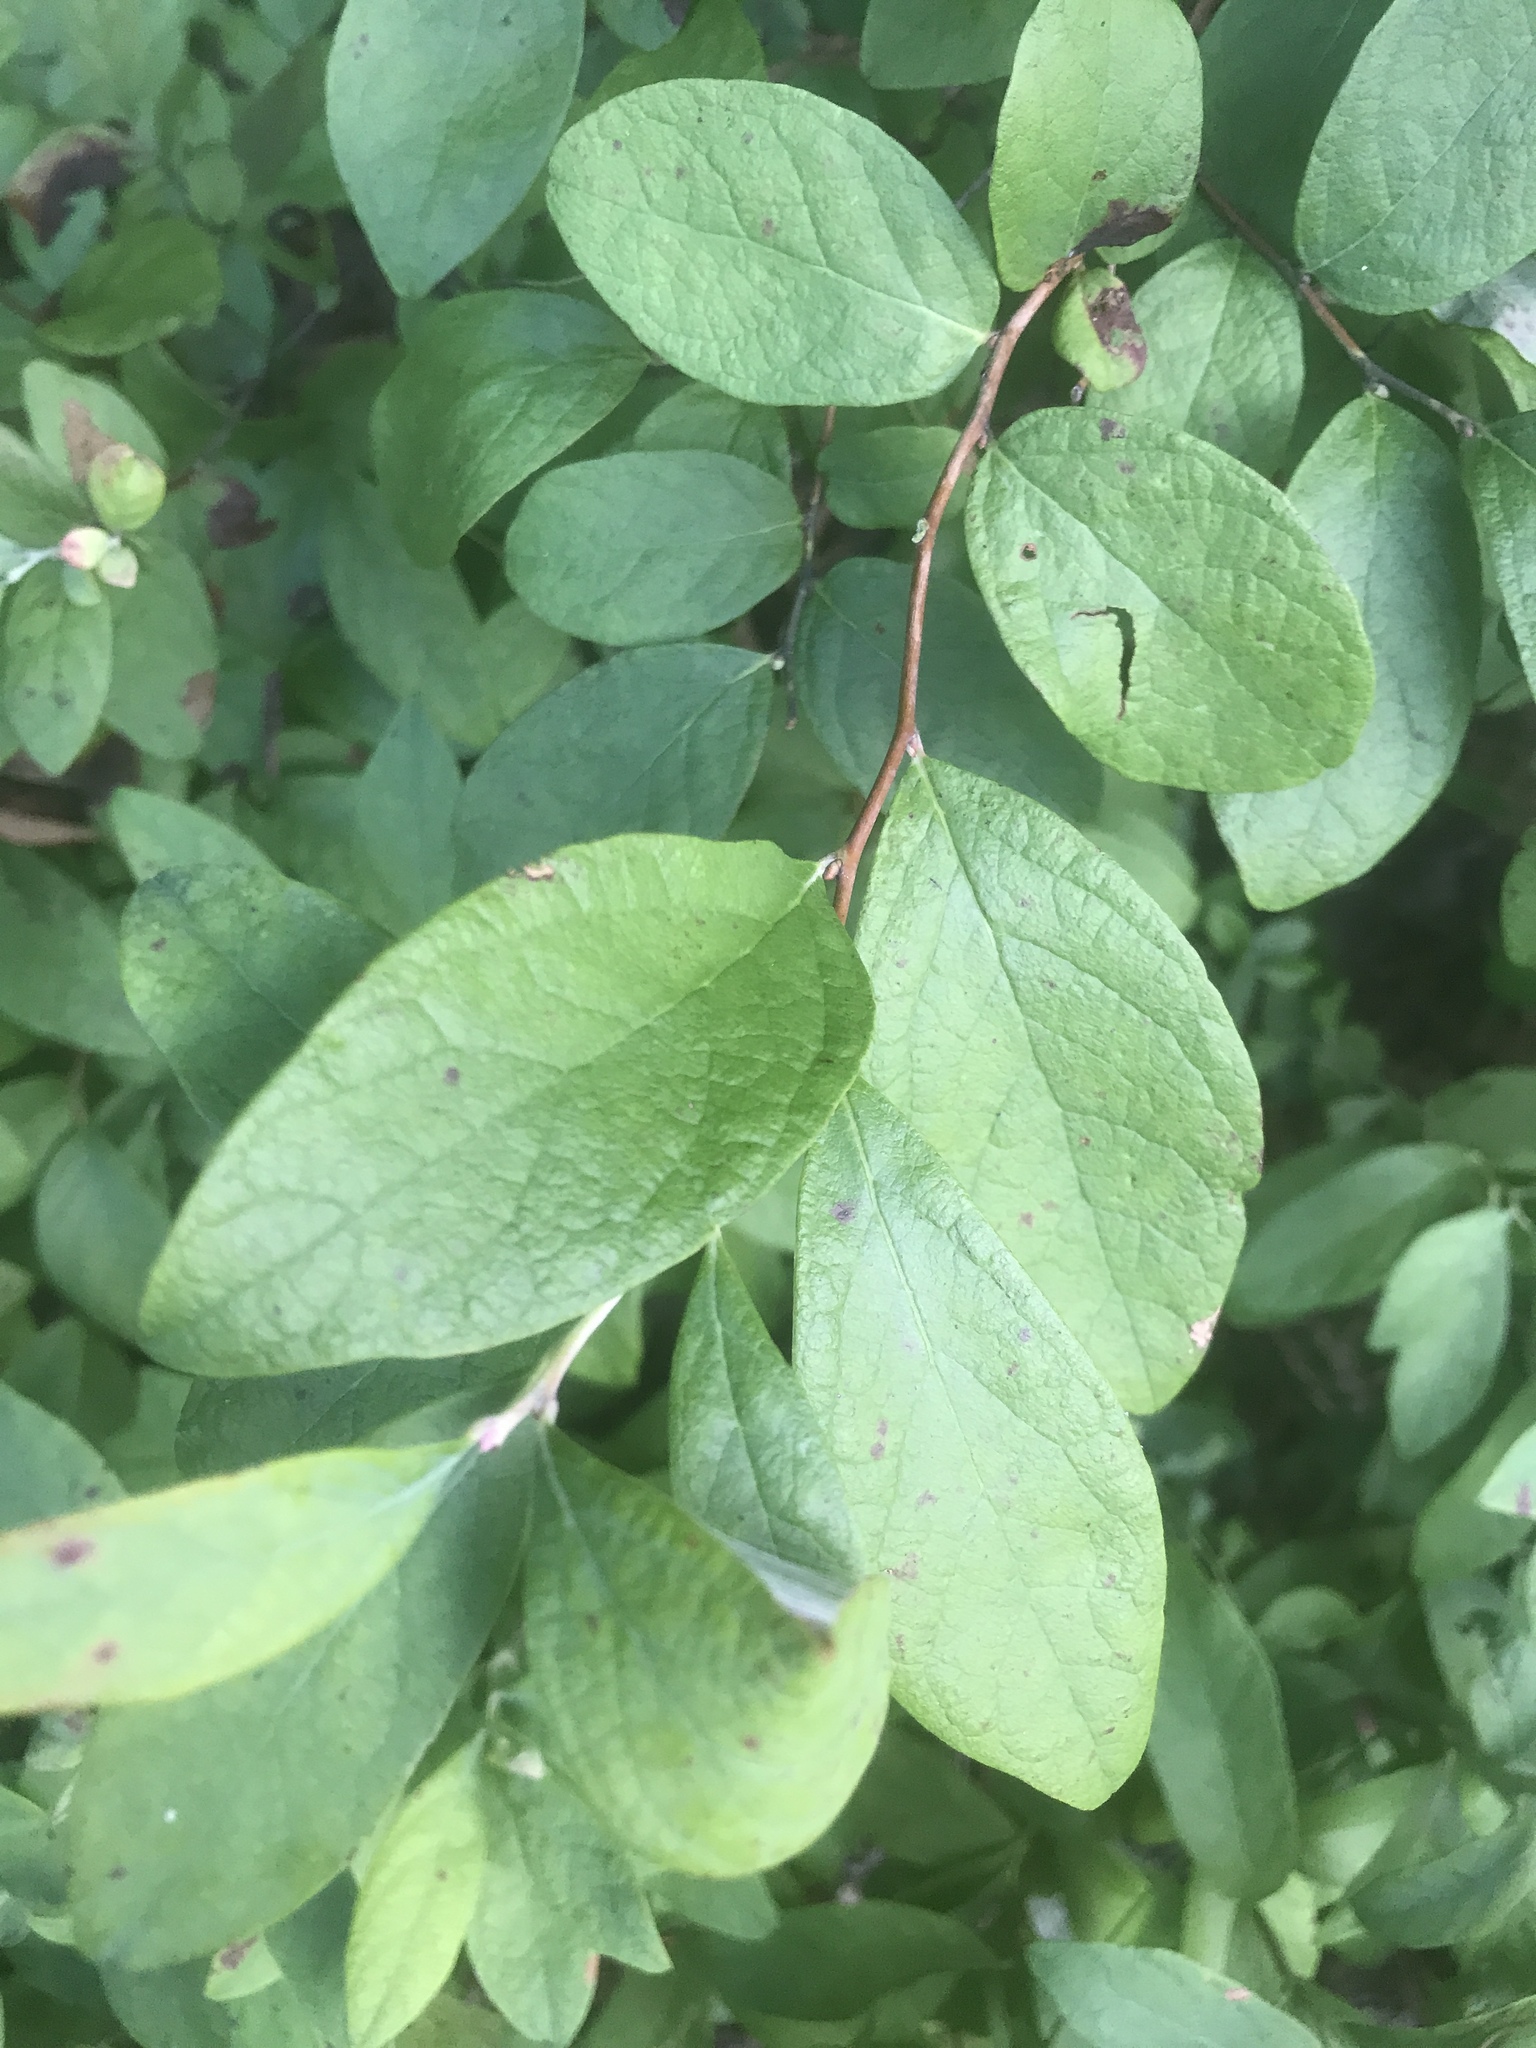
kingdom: Plantae
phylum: Tracheophyta
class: Magnoliopsida
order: Ericales
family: Ericaceae
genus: Gaylussacia
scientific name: Gaylussacia frondosa
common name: Dangleberry
